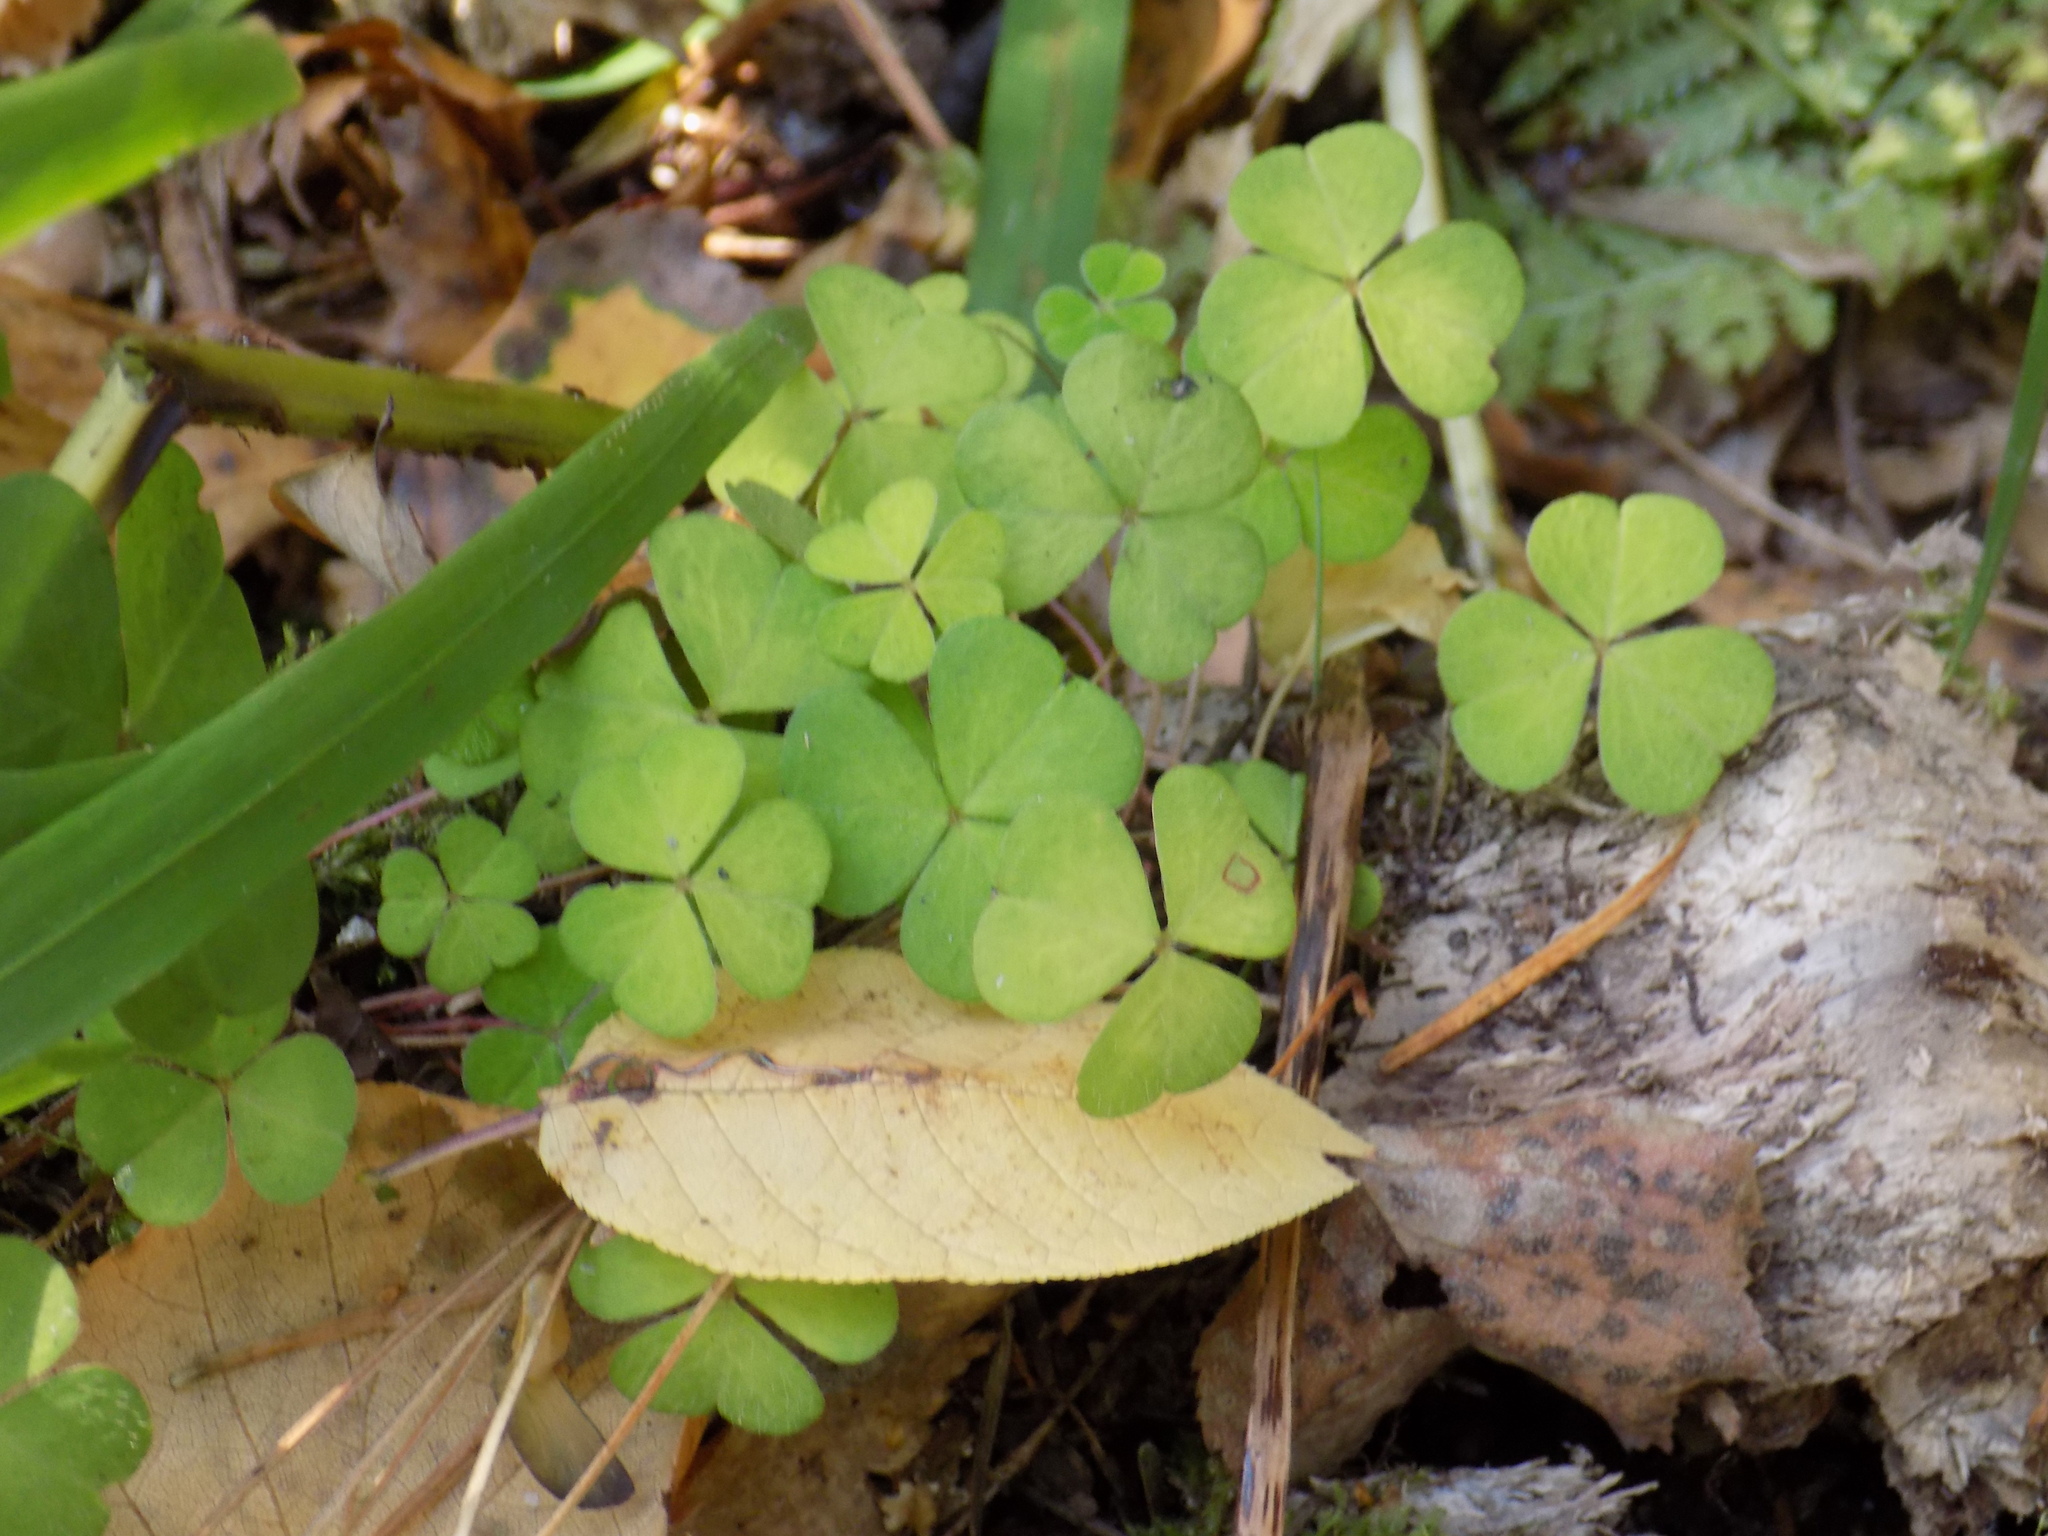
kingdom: Plantae
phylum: Tracheophyta
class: Magnoliopsida
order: Oxalidales
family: Oxalidaceae
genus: Oxalis
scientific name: Oxalis acetosella
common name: Wood-sorrel
